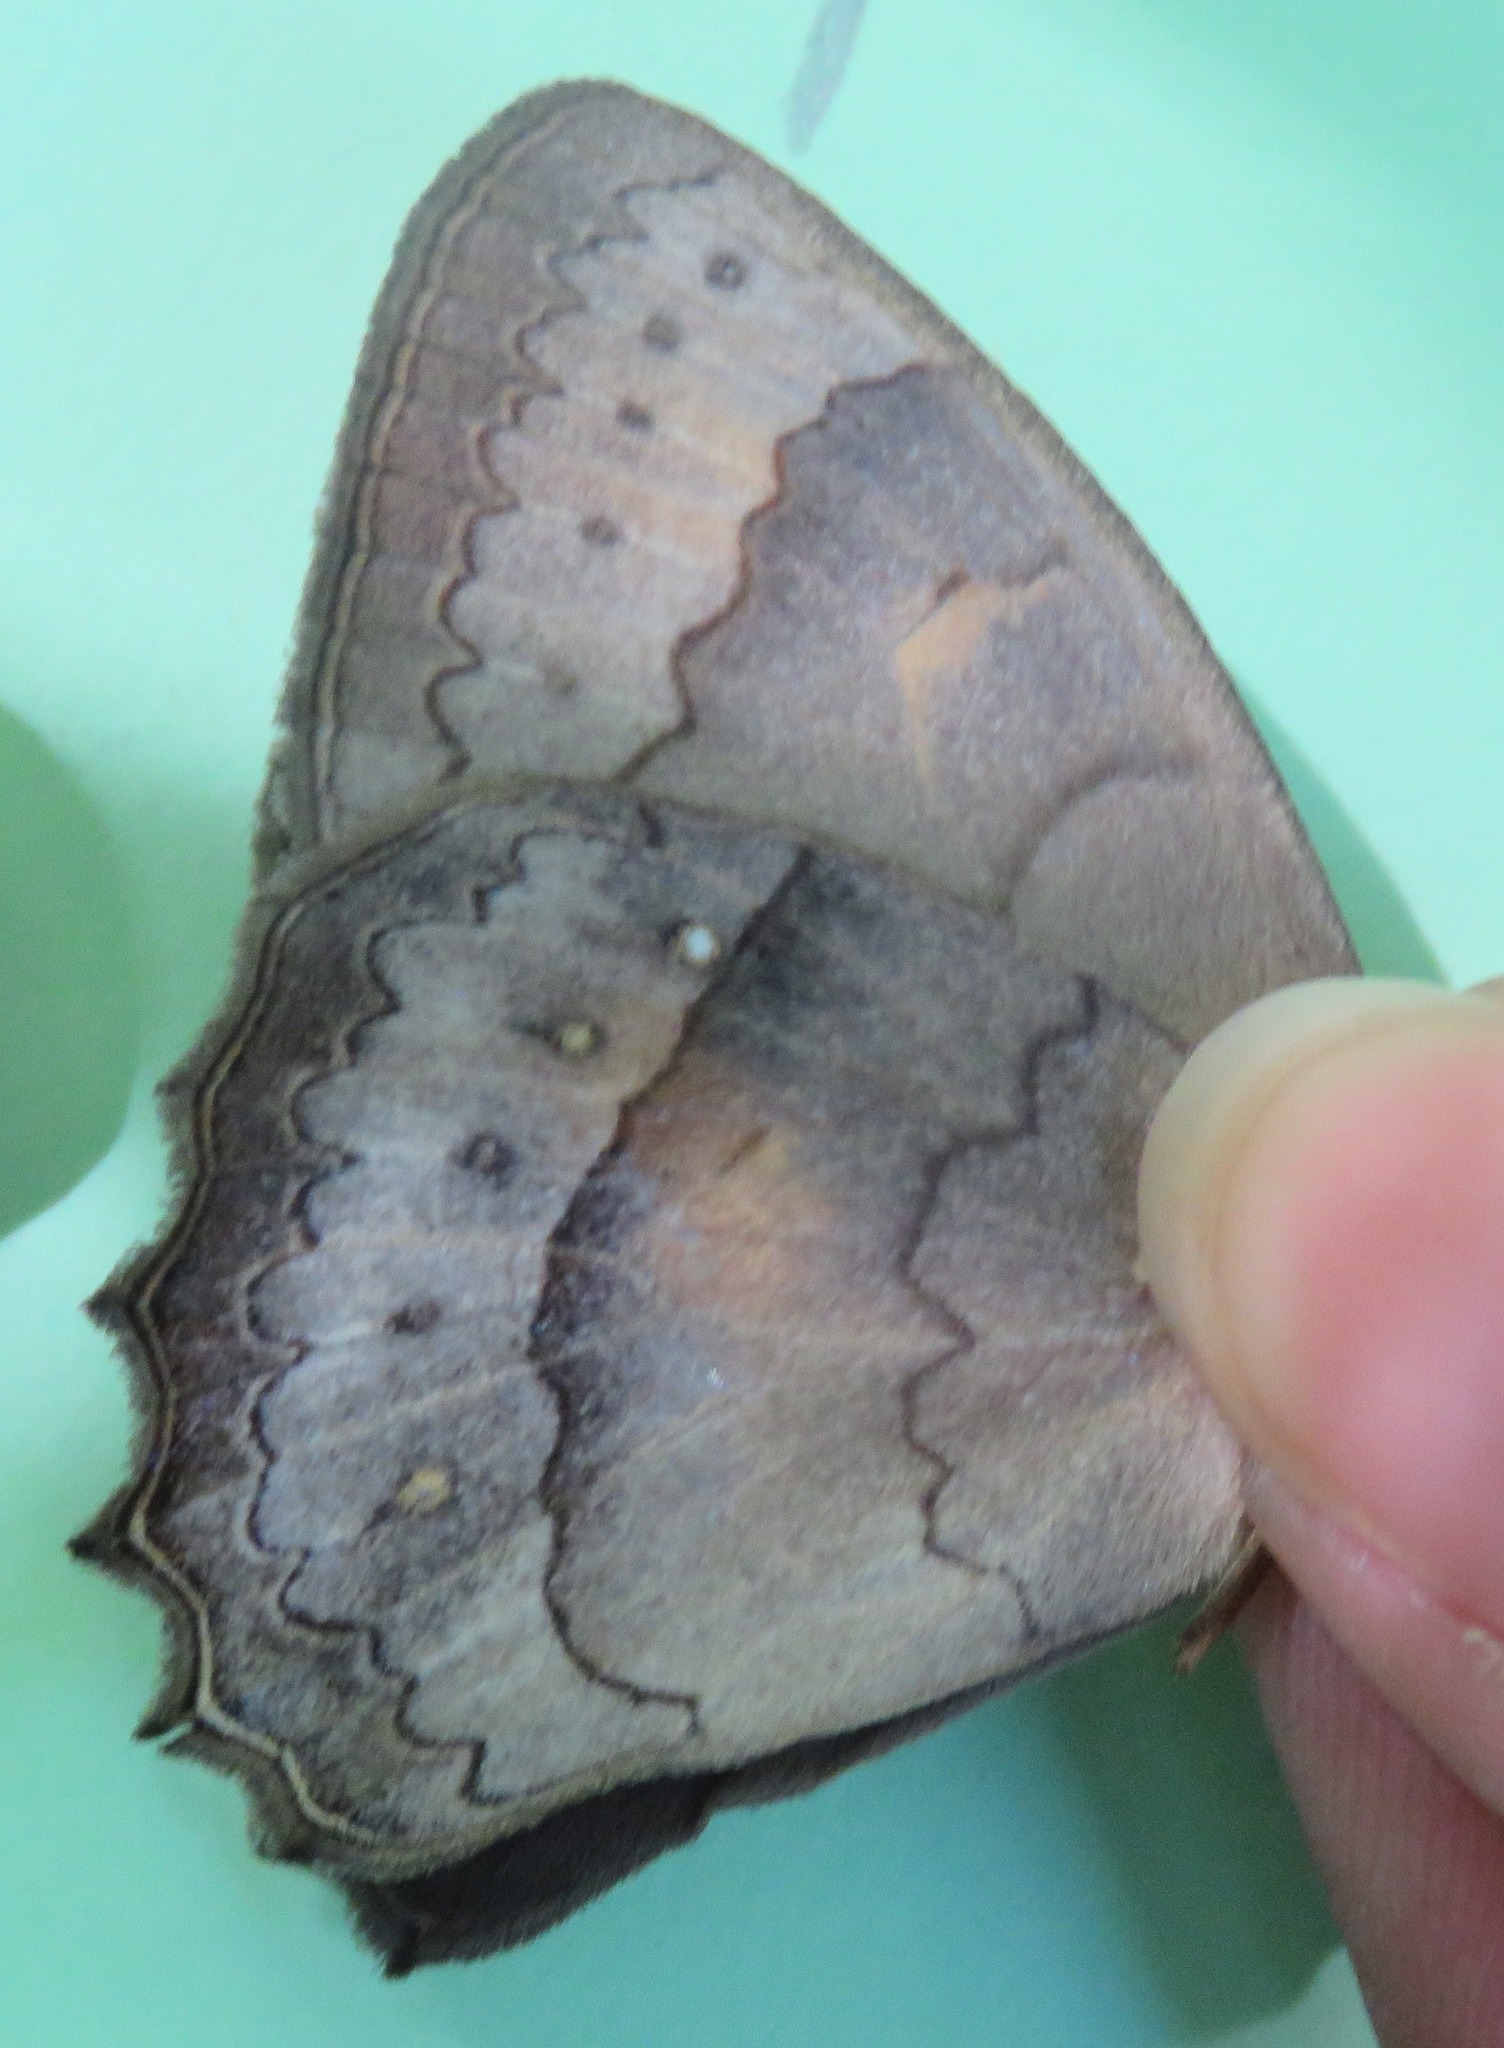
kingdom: Animalia
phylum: Arthropoda
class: Insecta
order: Lepidoptera
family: Nymphalidae
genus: Taygetina
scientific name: Taygetina kerea
